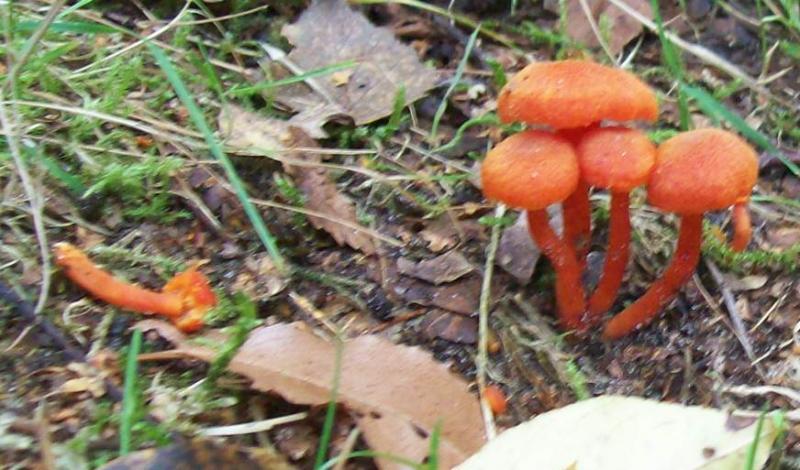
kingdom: Fungi
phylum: Basidiomycota
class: Agaricomycetes
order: Agaricales
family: Hygrophoraceae
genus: Hygrocybe
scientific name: Hygrocybe miniata
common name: Vermilion waxcap
